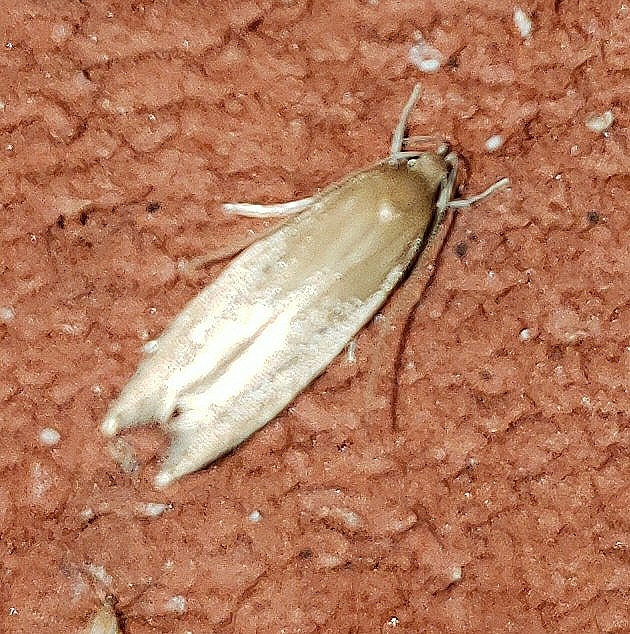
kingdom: Animalia
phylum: Arthropoda
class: Insecta
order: Lepidoptera
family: Cosmopterigidae
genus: Limnaecia
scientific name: Limnaecia phragmitella
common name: Bulrush cosmet
